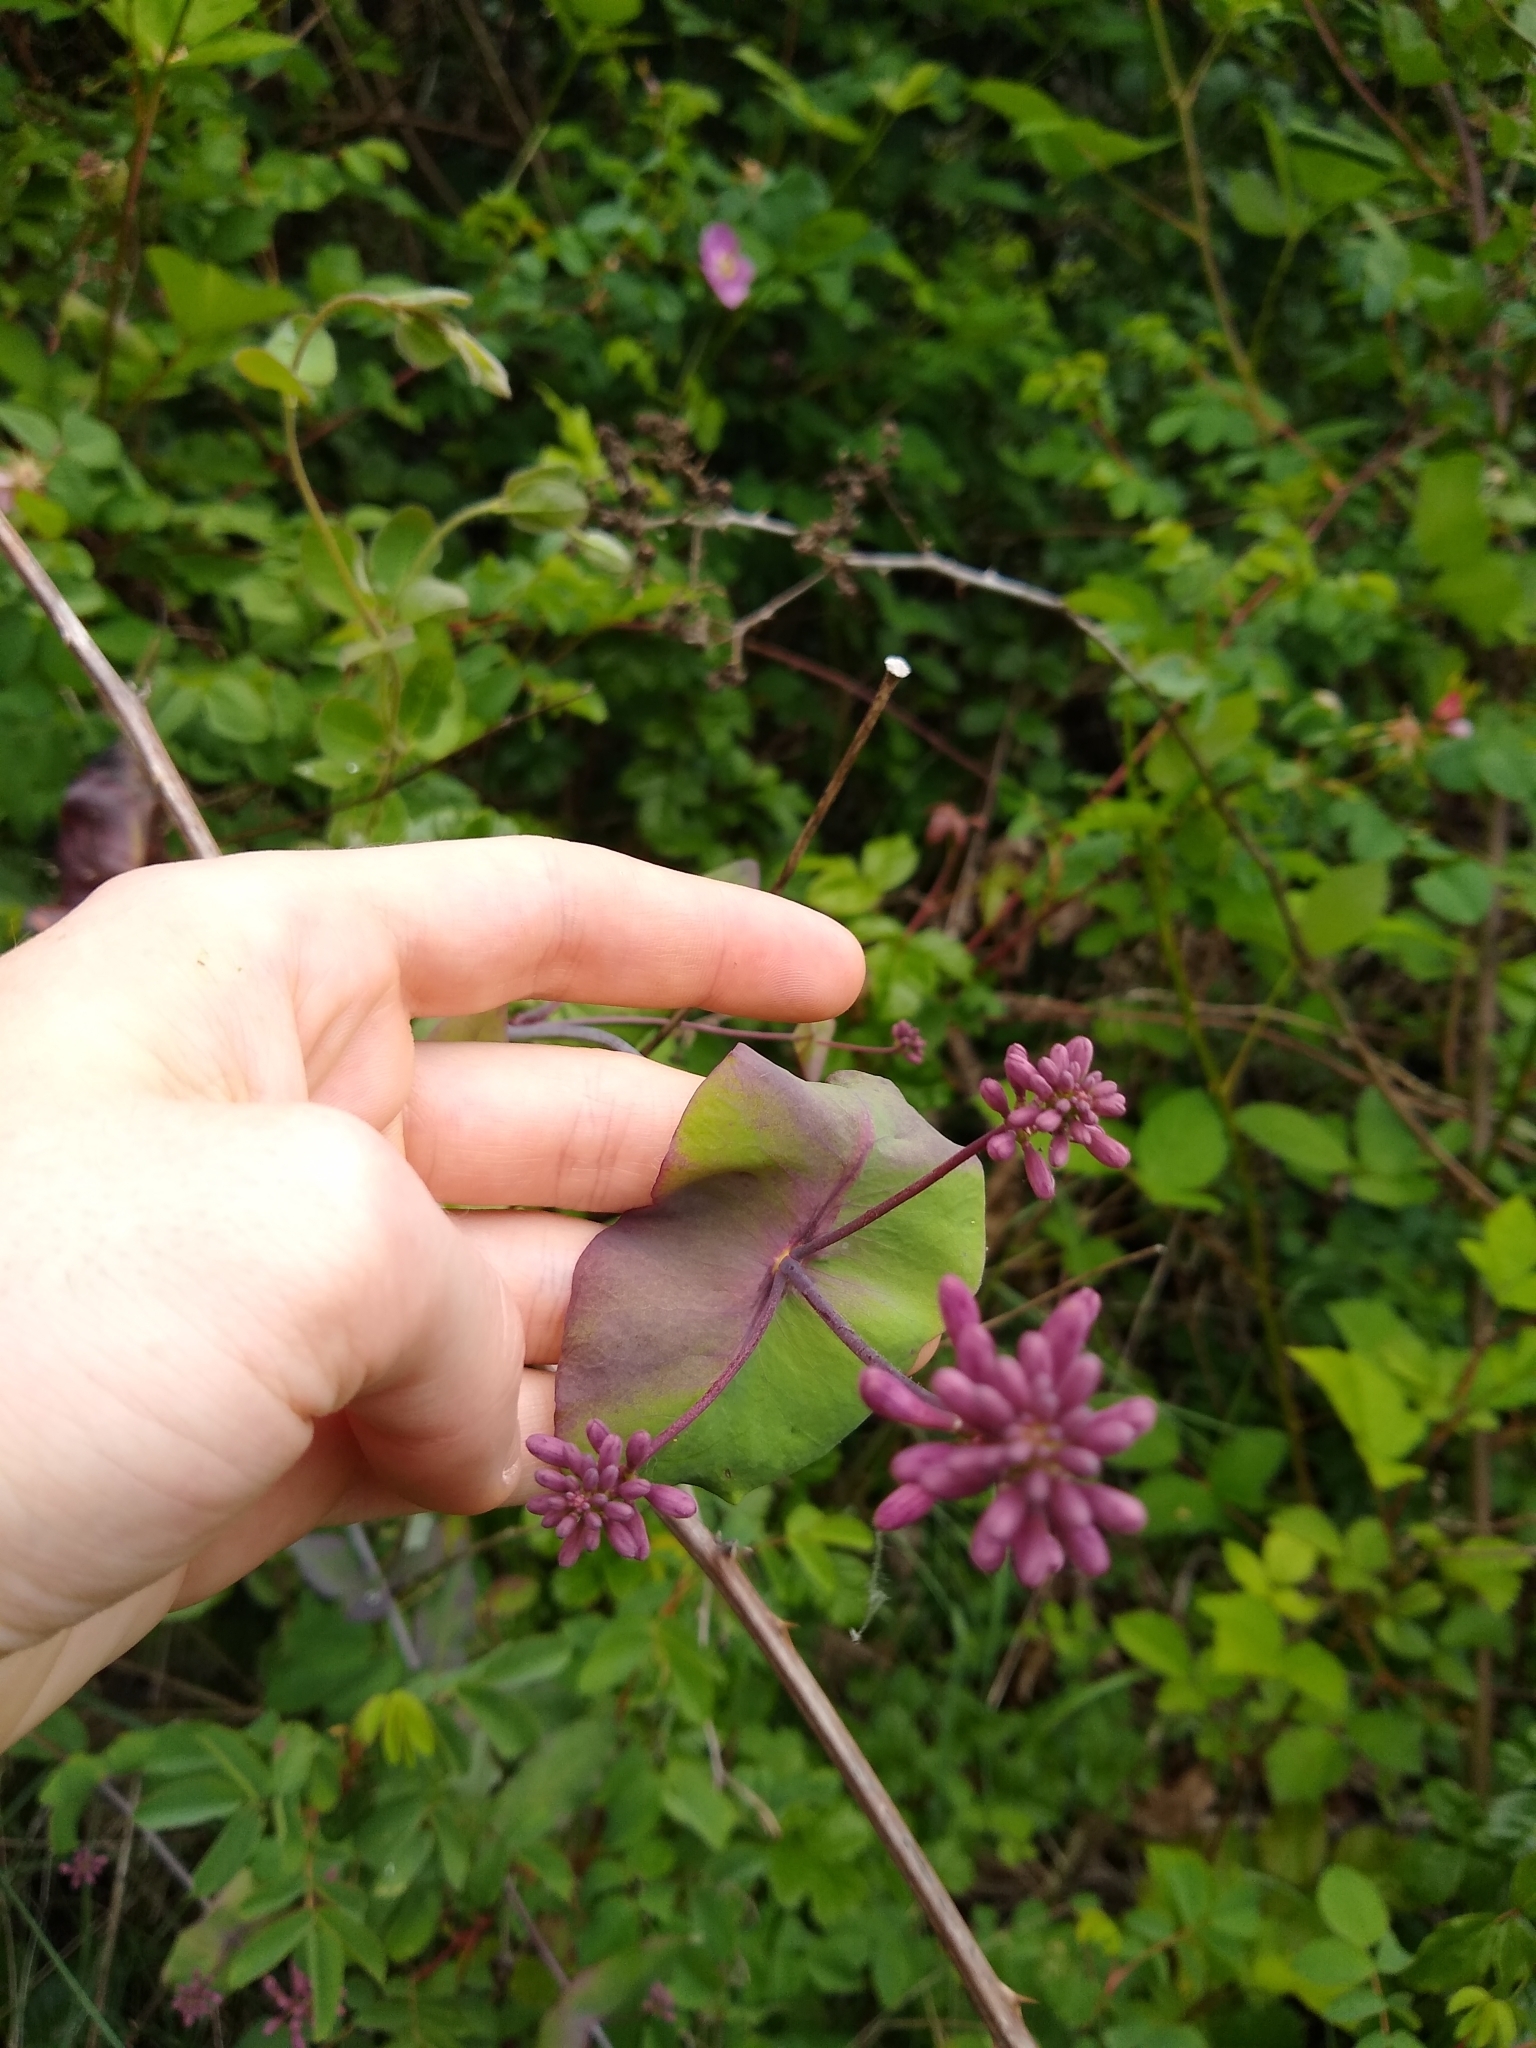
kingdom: Plantae
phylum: Tracheophyta
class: Magnoliopsida
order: Dipsacales
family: Caprifoliaceae
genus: Lonicera
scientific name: Lonicera hispidula
